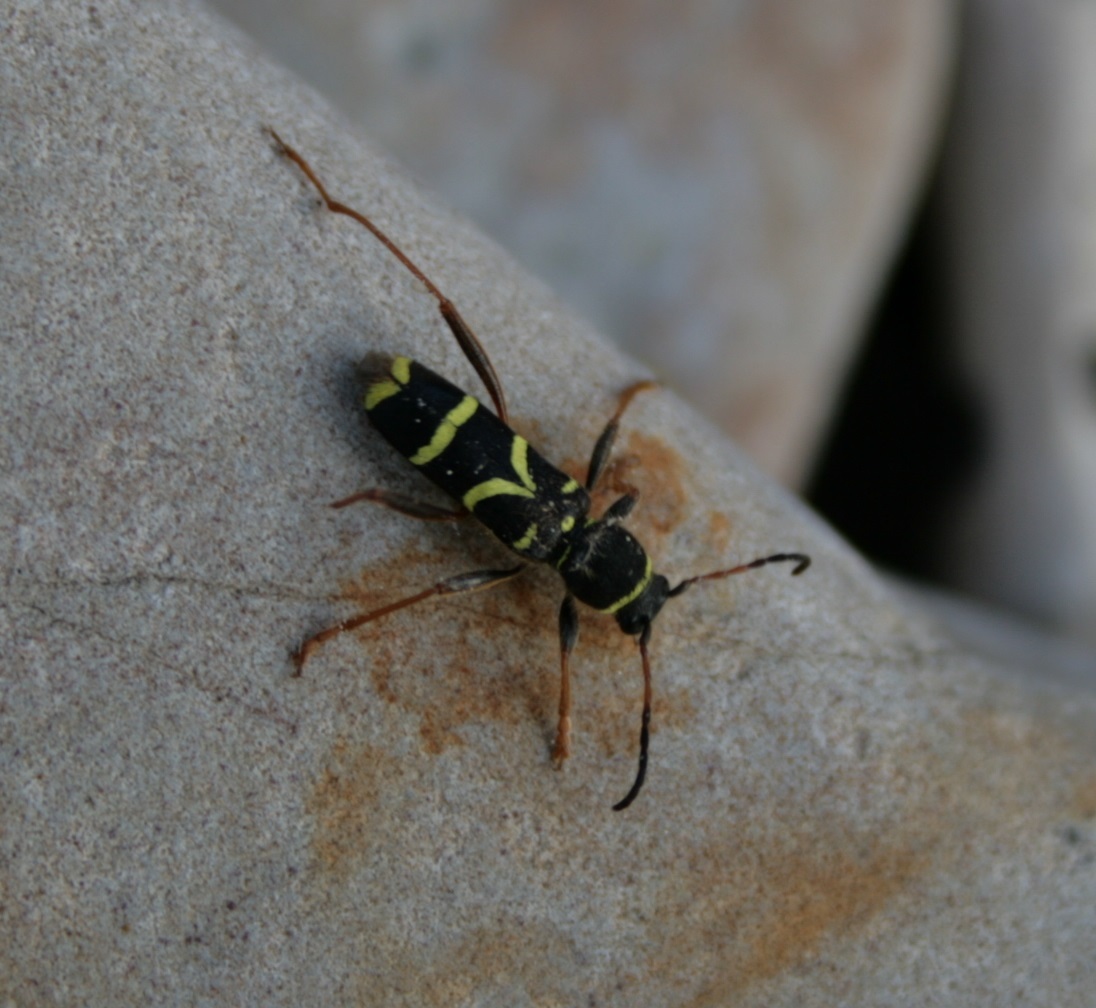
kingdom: Animalia
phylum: Arthropoda
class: Insecta
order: Coleoptera
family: Cerambycidae
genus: Clytus
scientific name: Clytus arietis
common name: Wasp beetle
